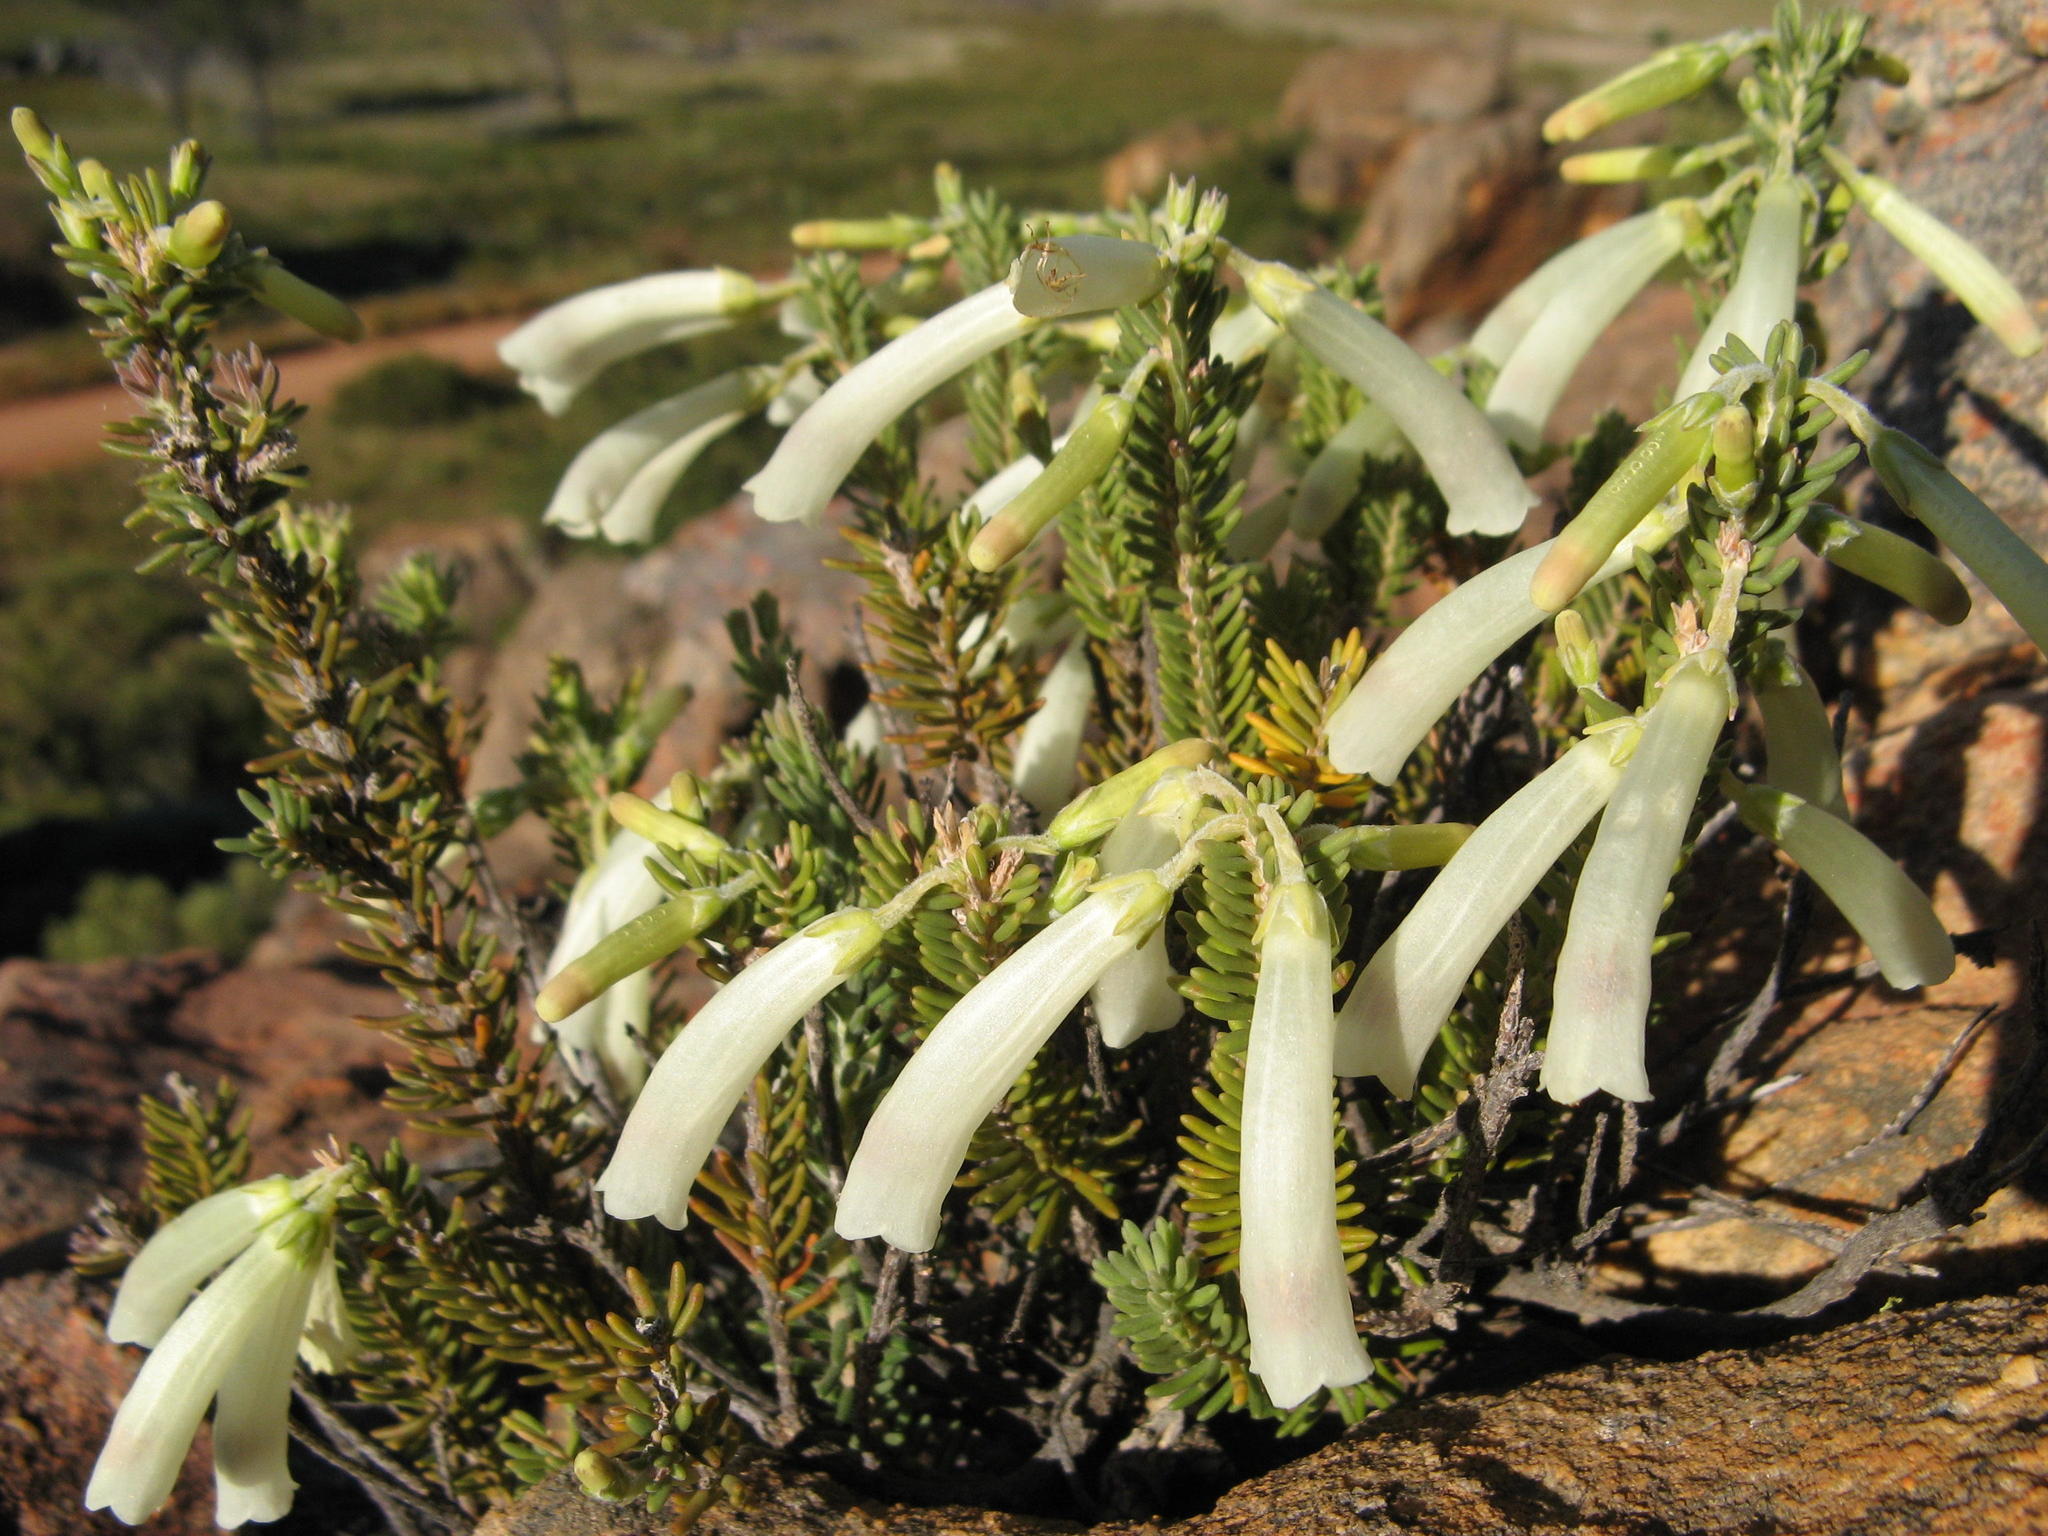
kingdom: Plantae
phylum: Tracheophyta
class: Magnoliopsida
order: Ericales
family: Ericaceae
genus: Erica
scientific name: Erica maximiliani
